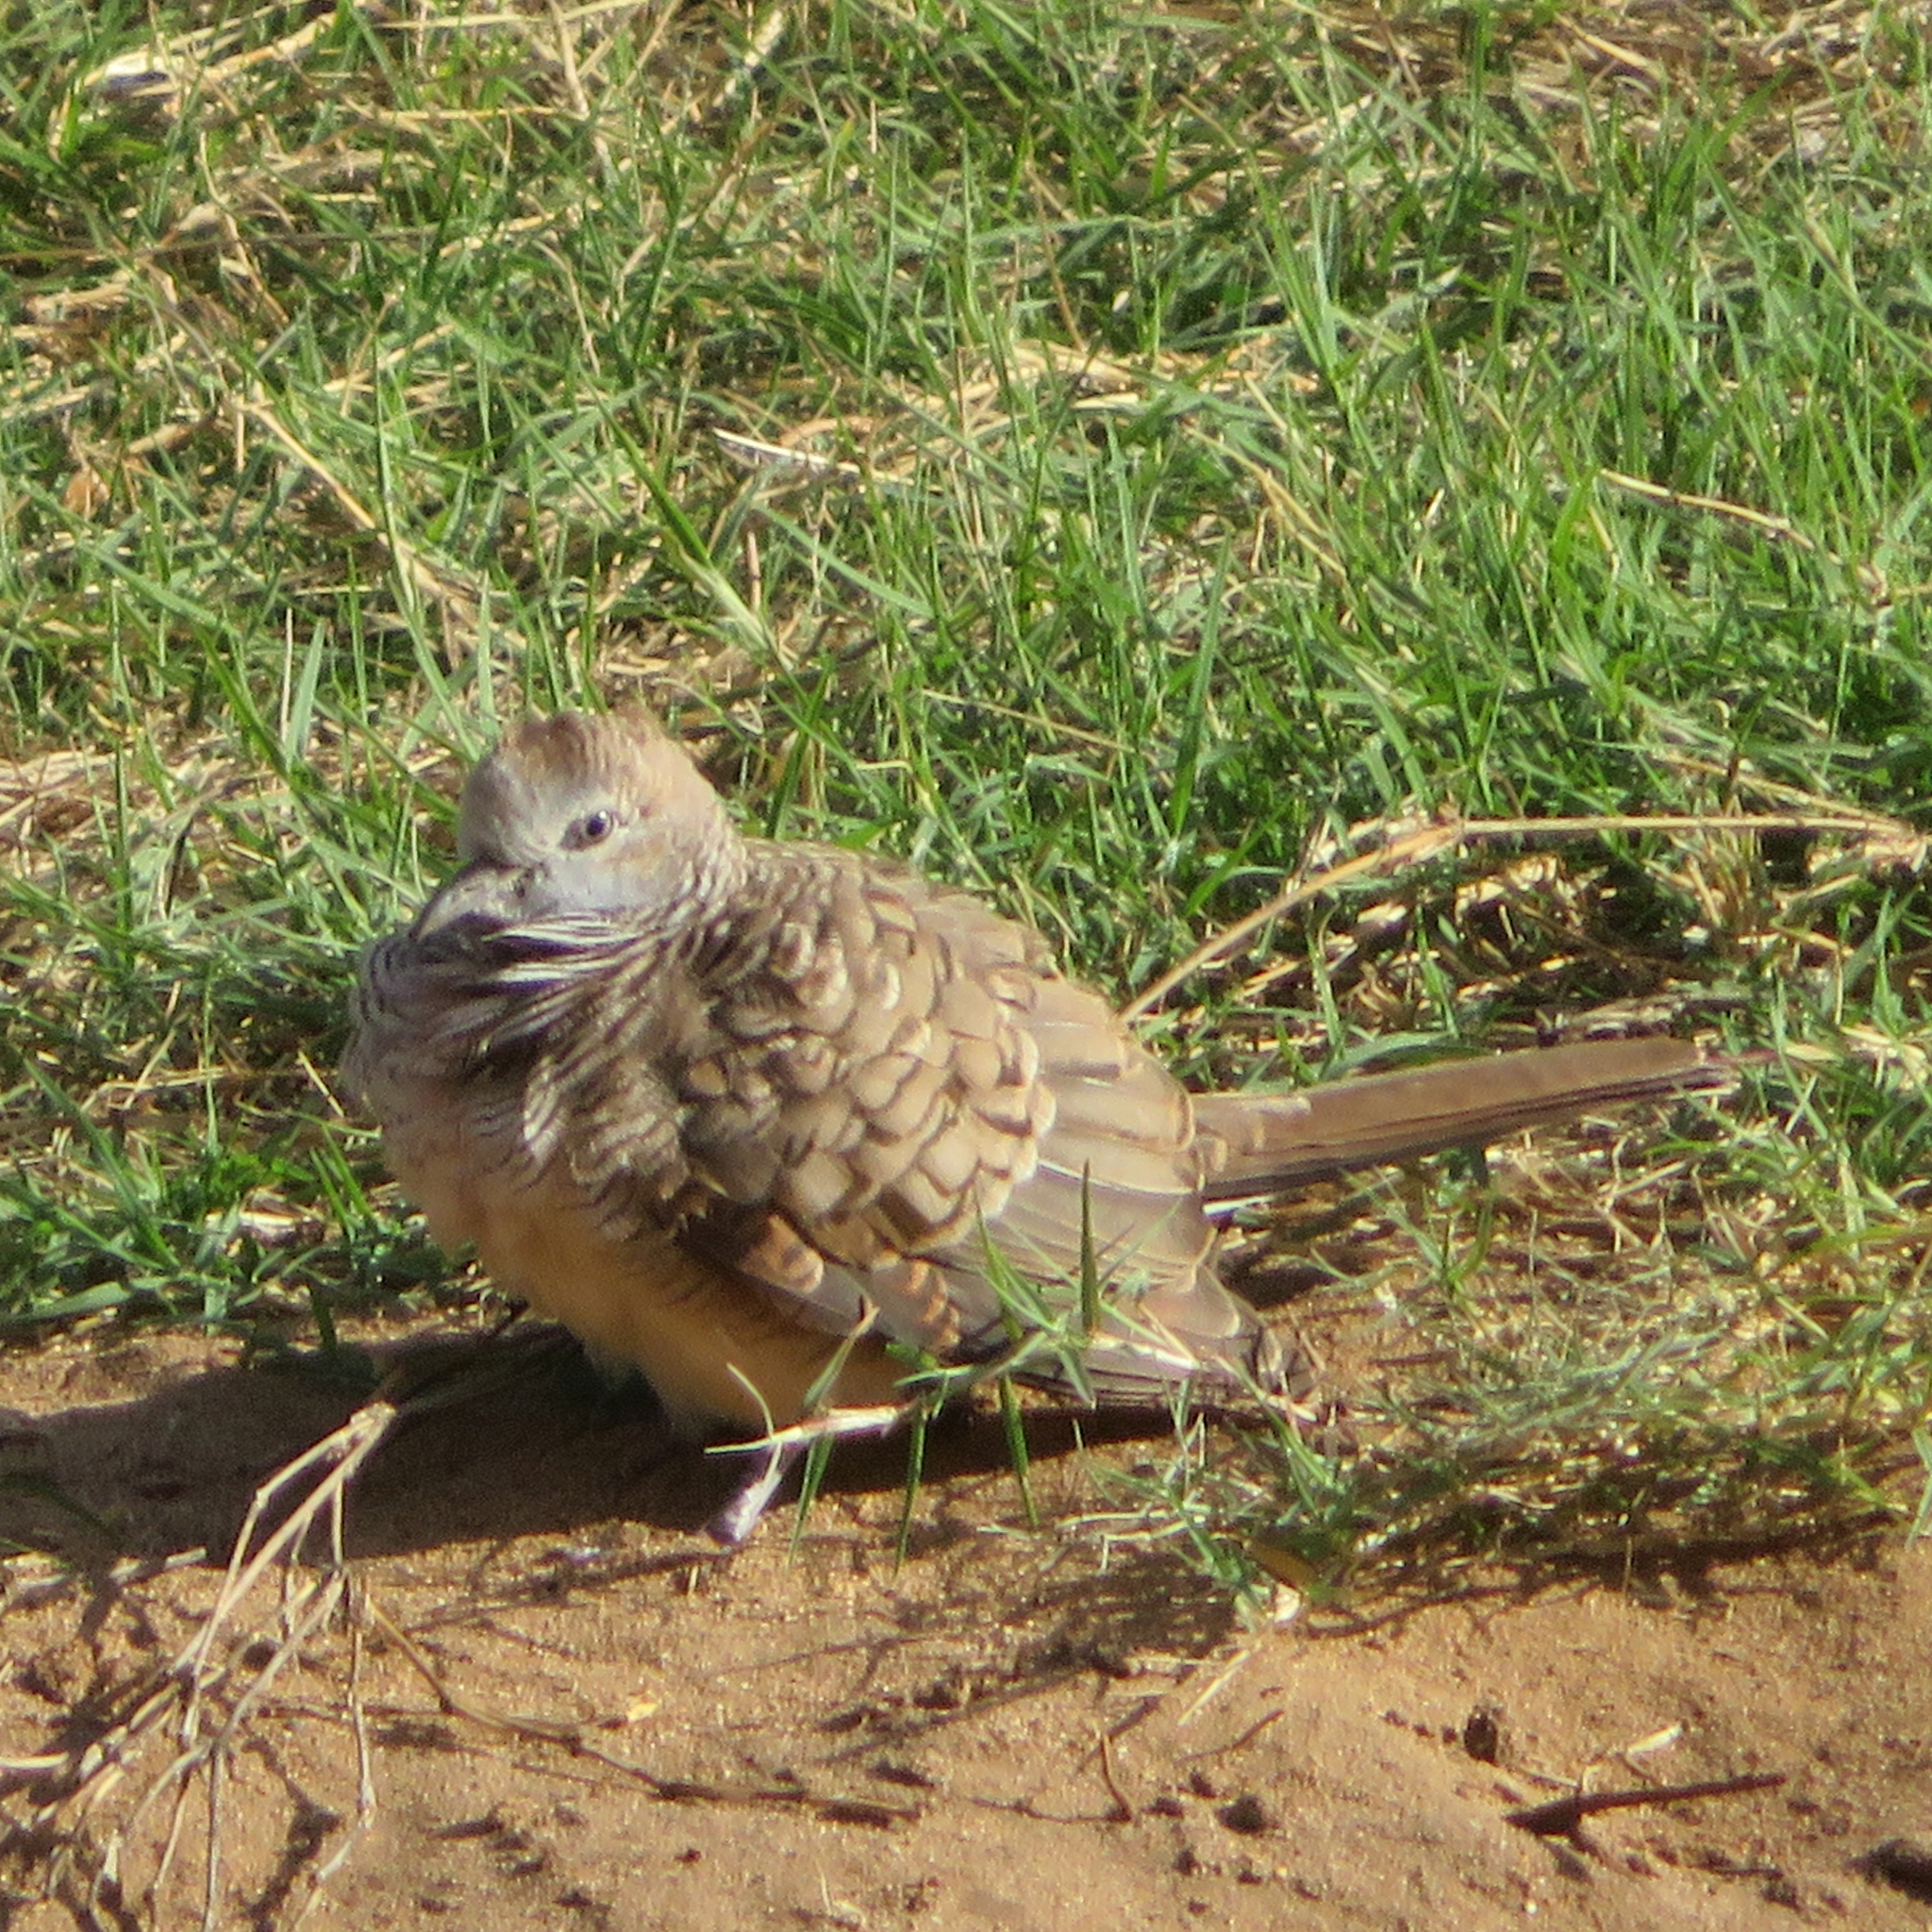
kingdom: Animalia
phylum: Chordata
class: Aves
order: Columbiformes
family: Columbidae
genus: Geopelia
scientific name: Geopelia striata
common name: Zebra dove
